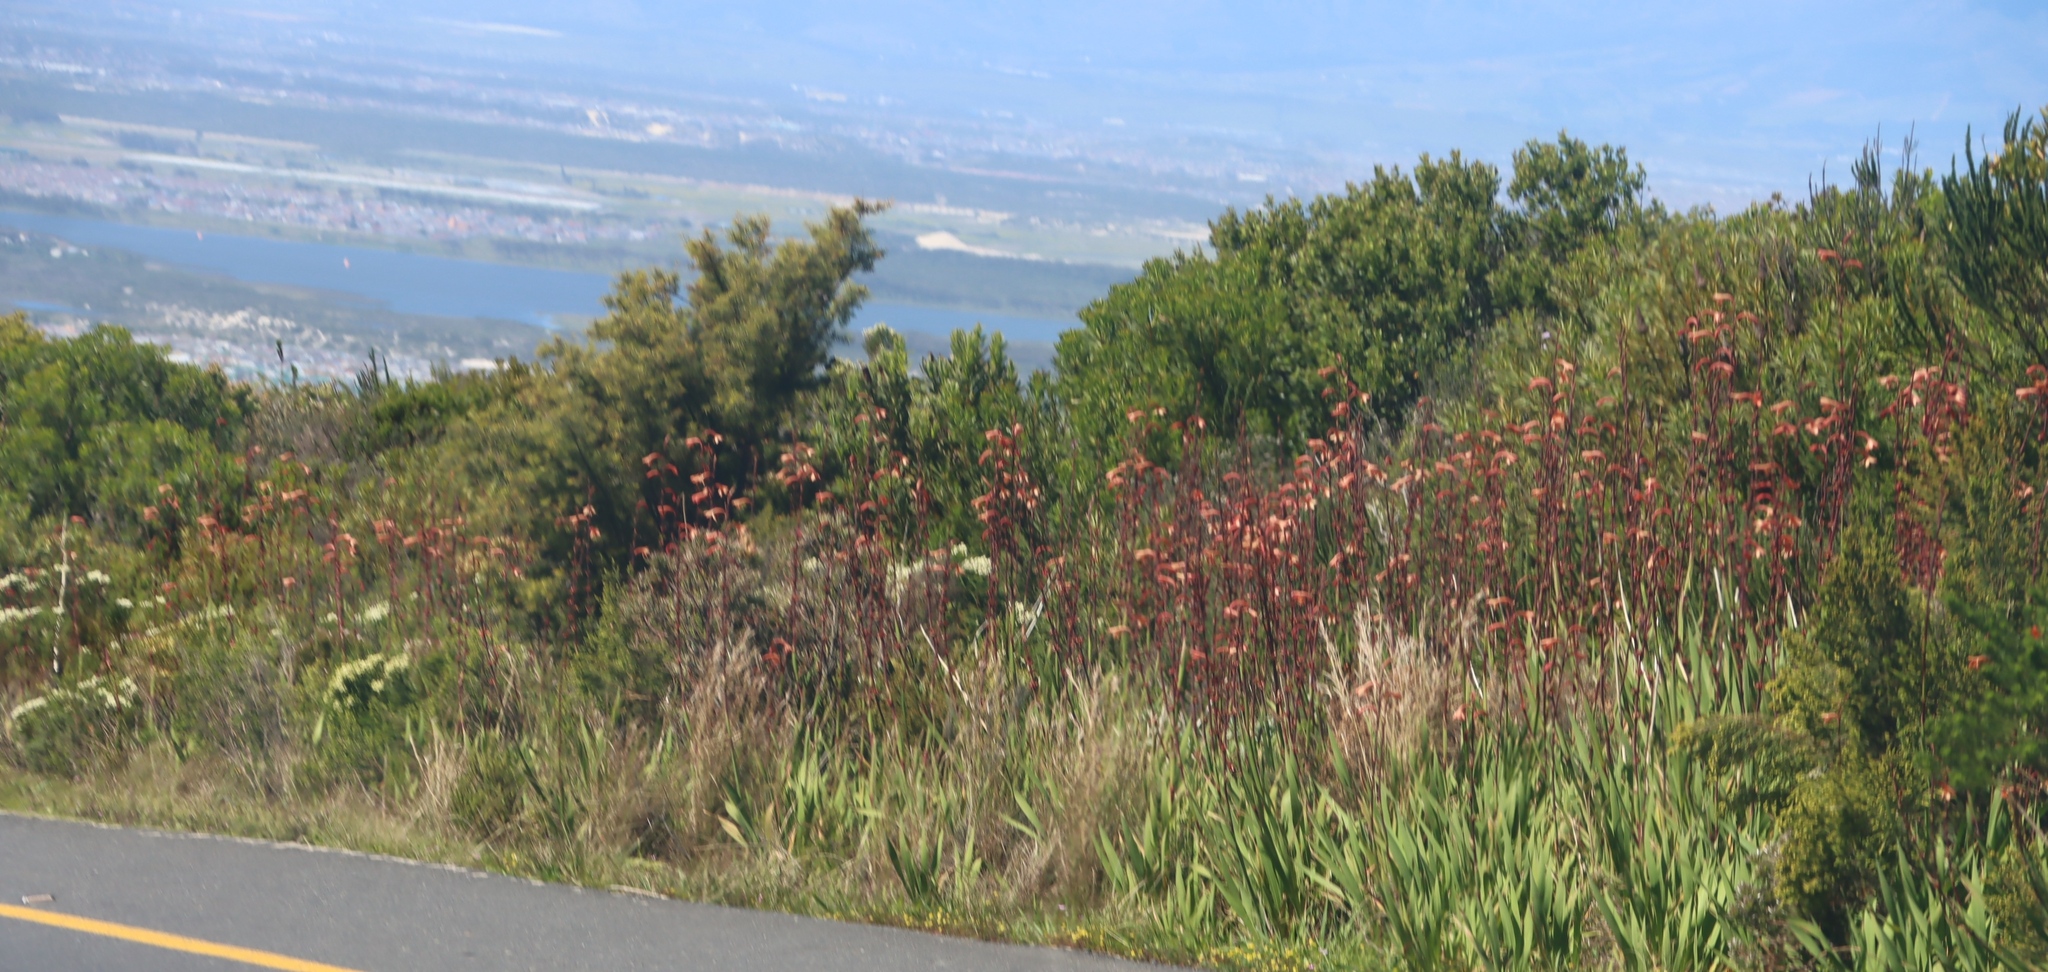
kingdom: Plantae
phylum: Tracheophyta
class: Magnoliopsida
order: Proteales
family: Proteaceae
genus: Hakea
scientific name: Hakea sericea
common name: Needle bush
